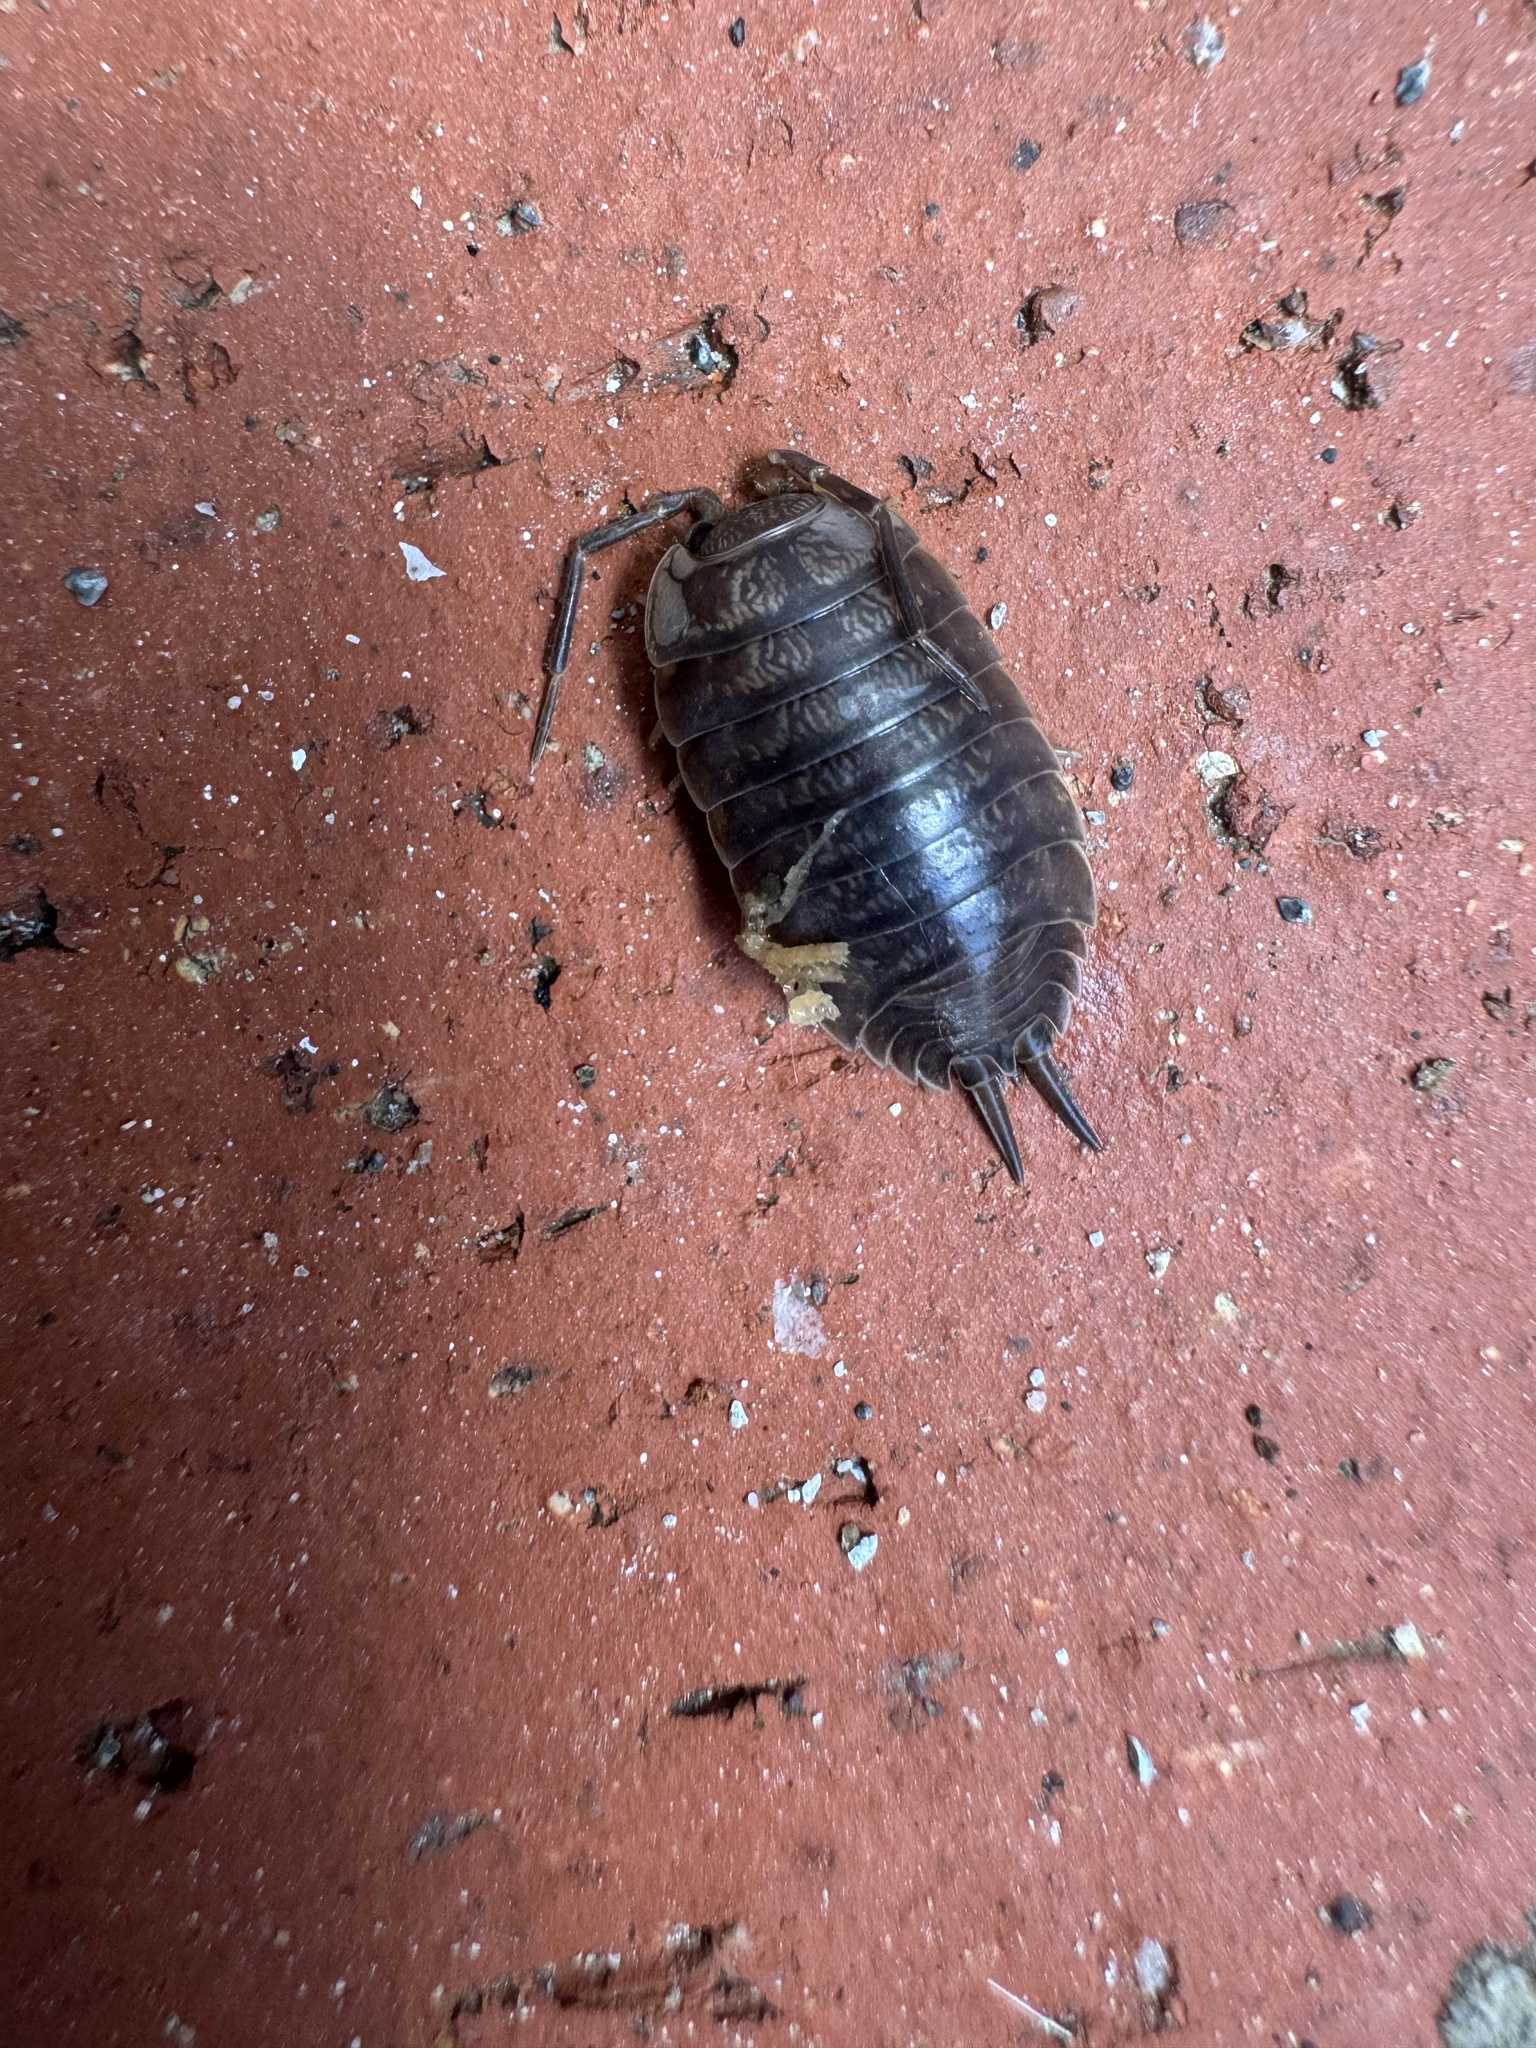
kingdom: Animalia
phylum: Arthropoda
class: Malacostraca
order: Isopoda
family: Porcellionidae
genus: Porcellio
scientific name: Porcellio laevis
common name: Swift woodlouse
